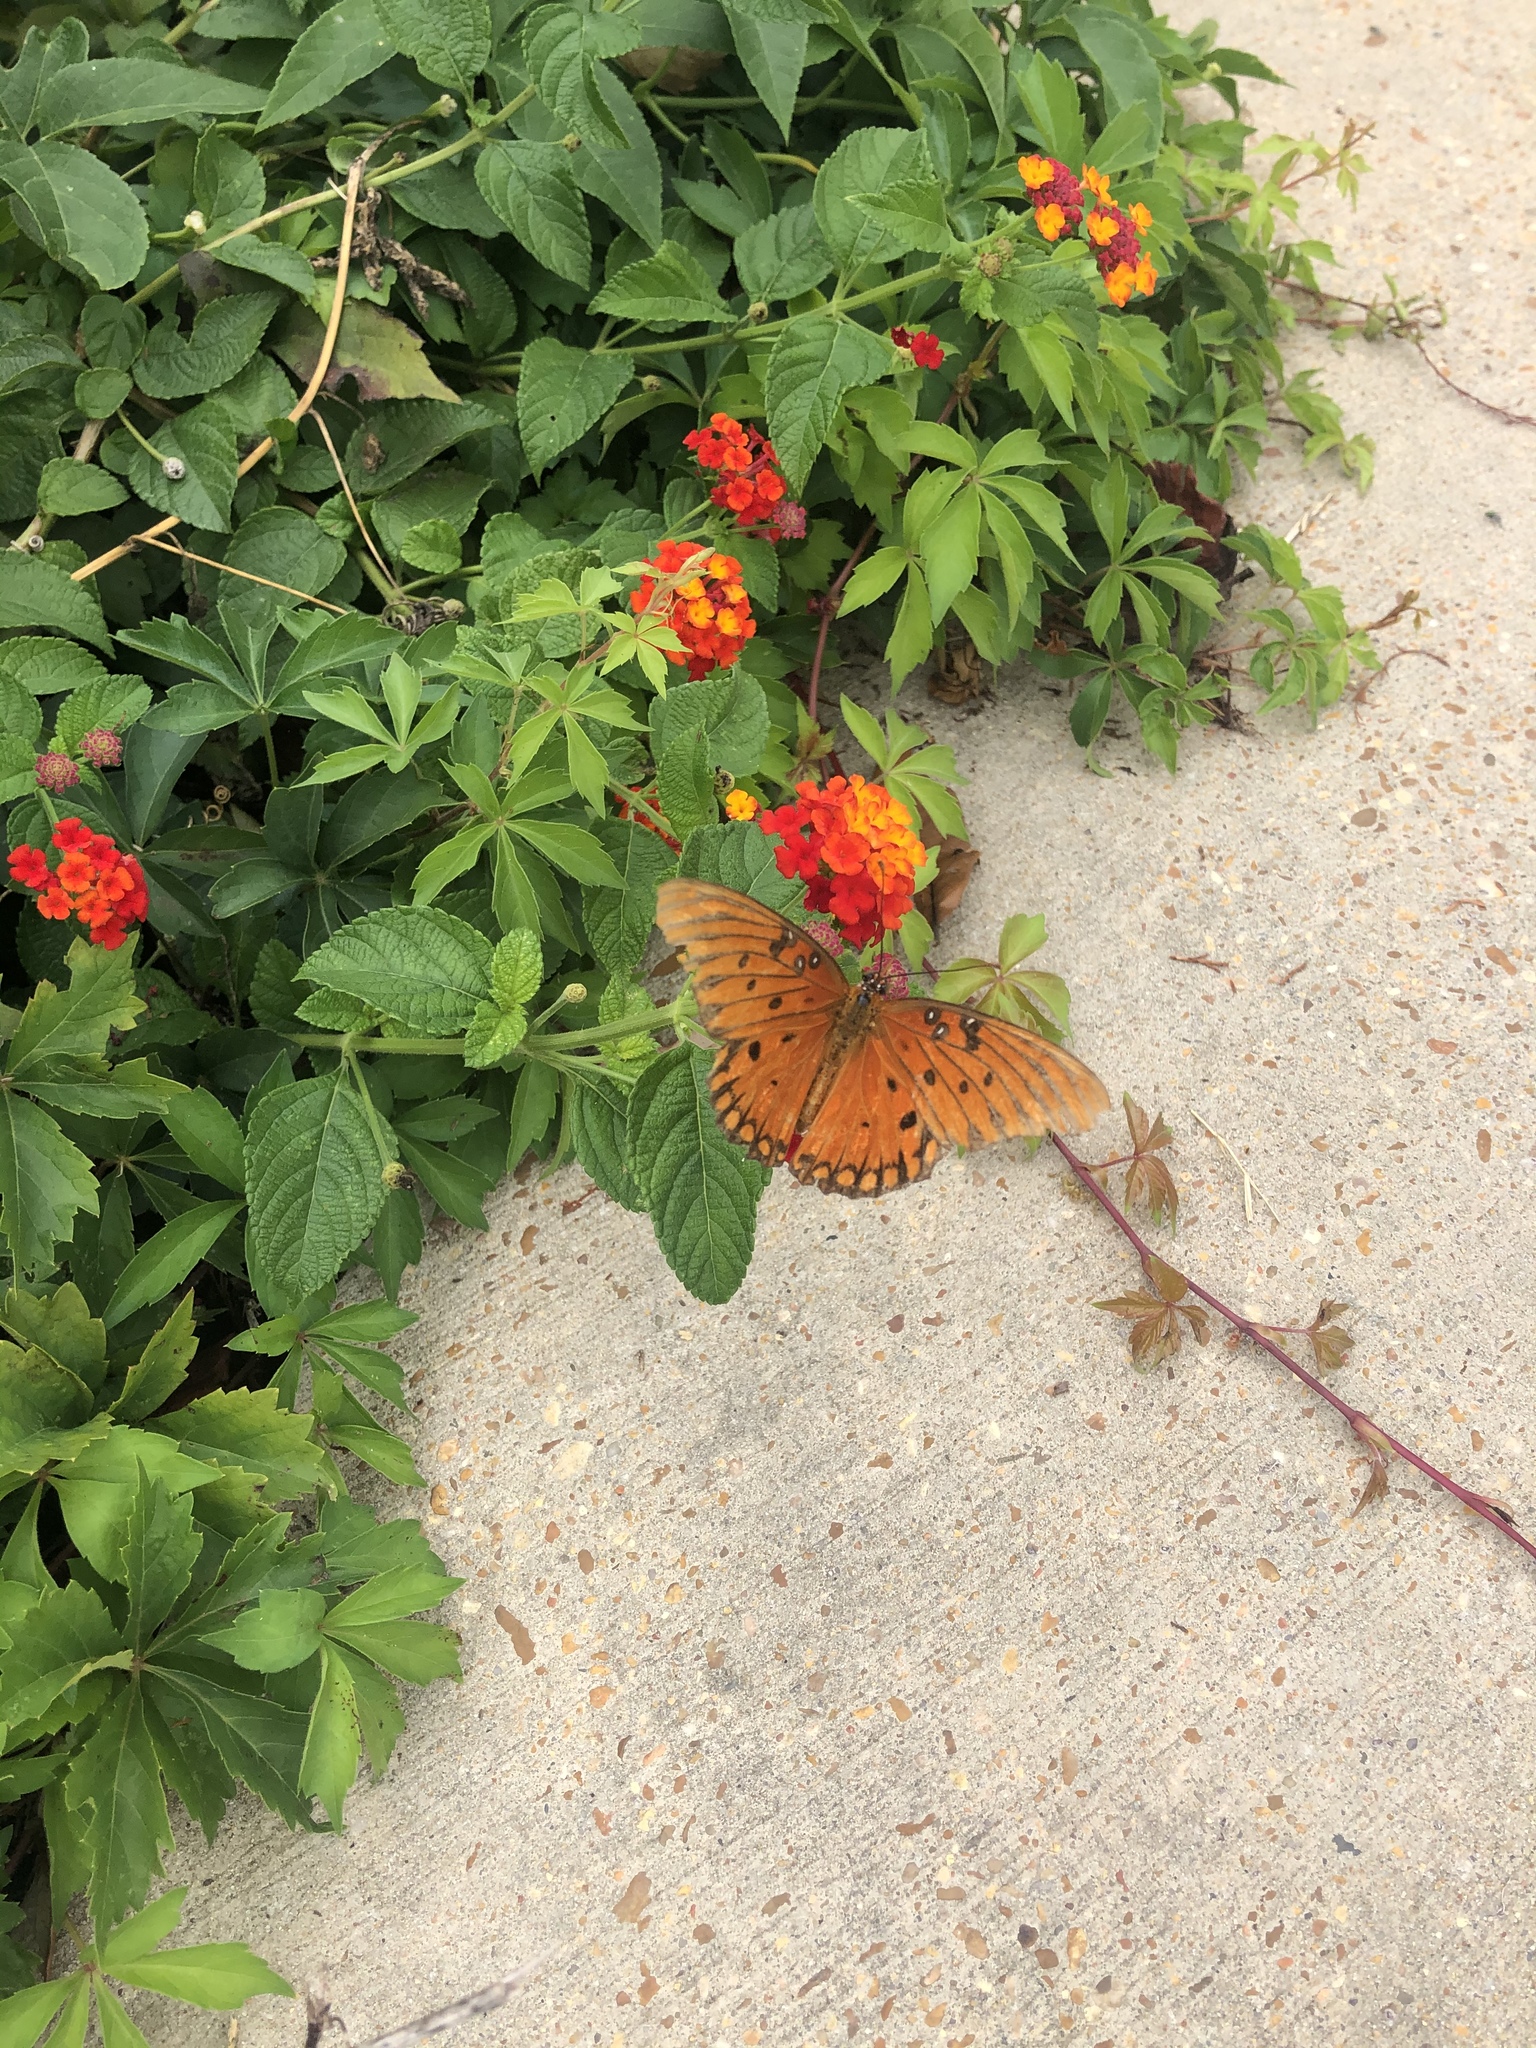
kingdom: Animalia
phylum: Arthropoda
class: Insecta
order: Lepidoptera
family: Nymphalidae
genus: Dione
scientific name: Dione vanillae
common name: Gulf fritillary
